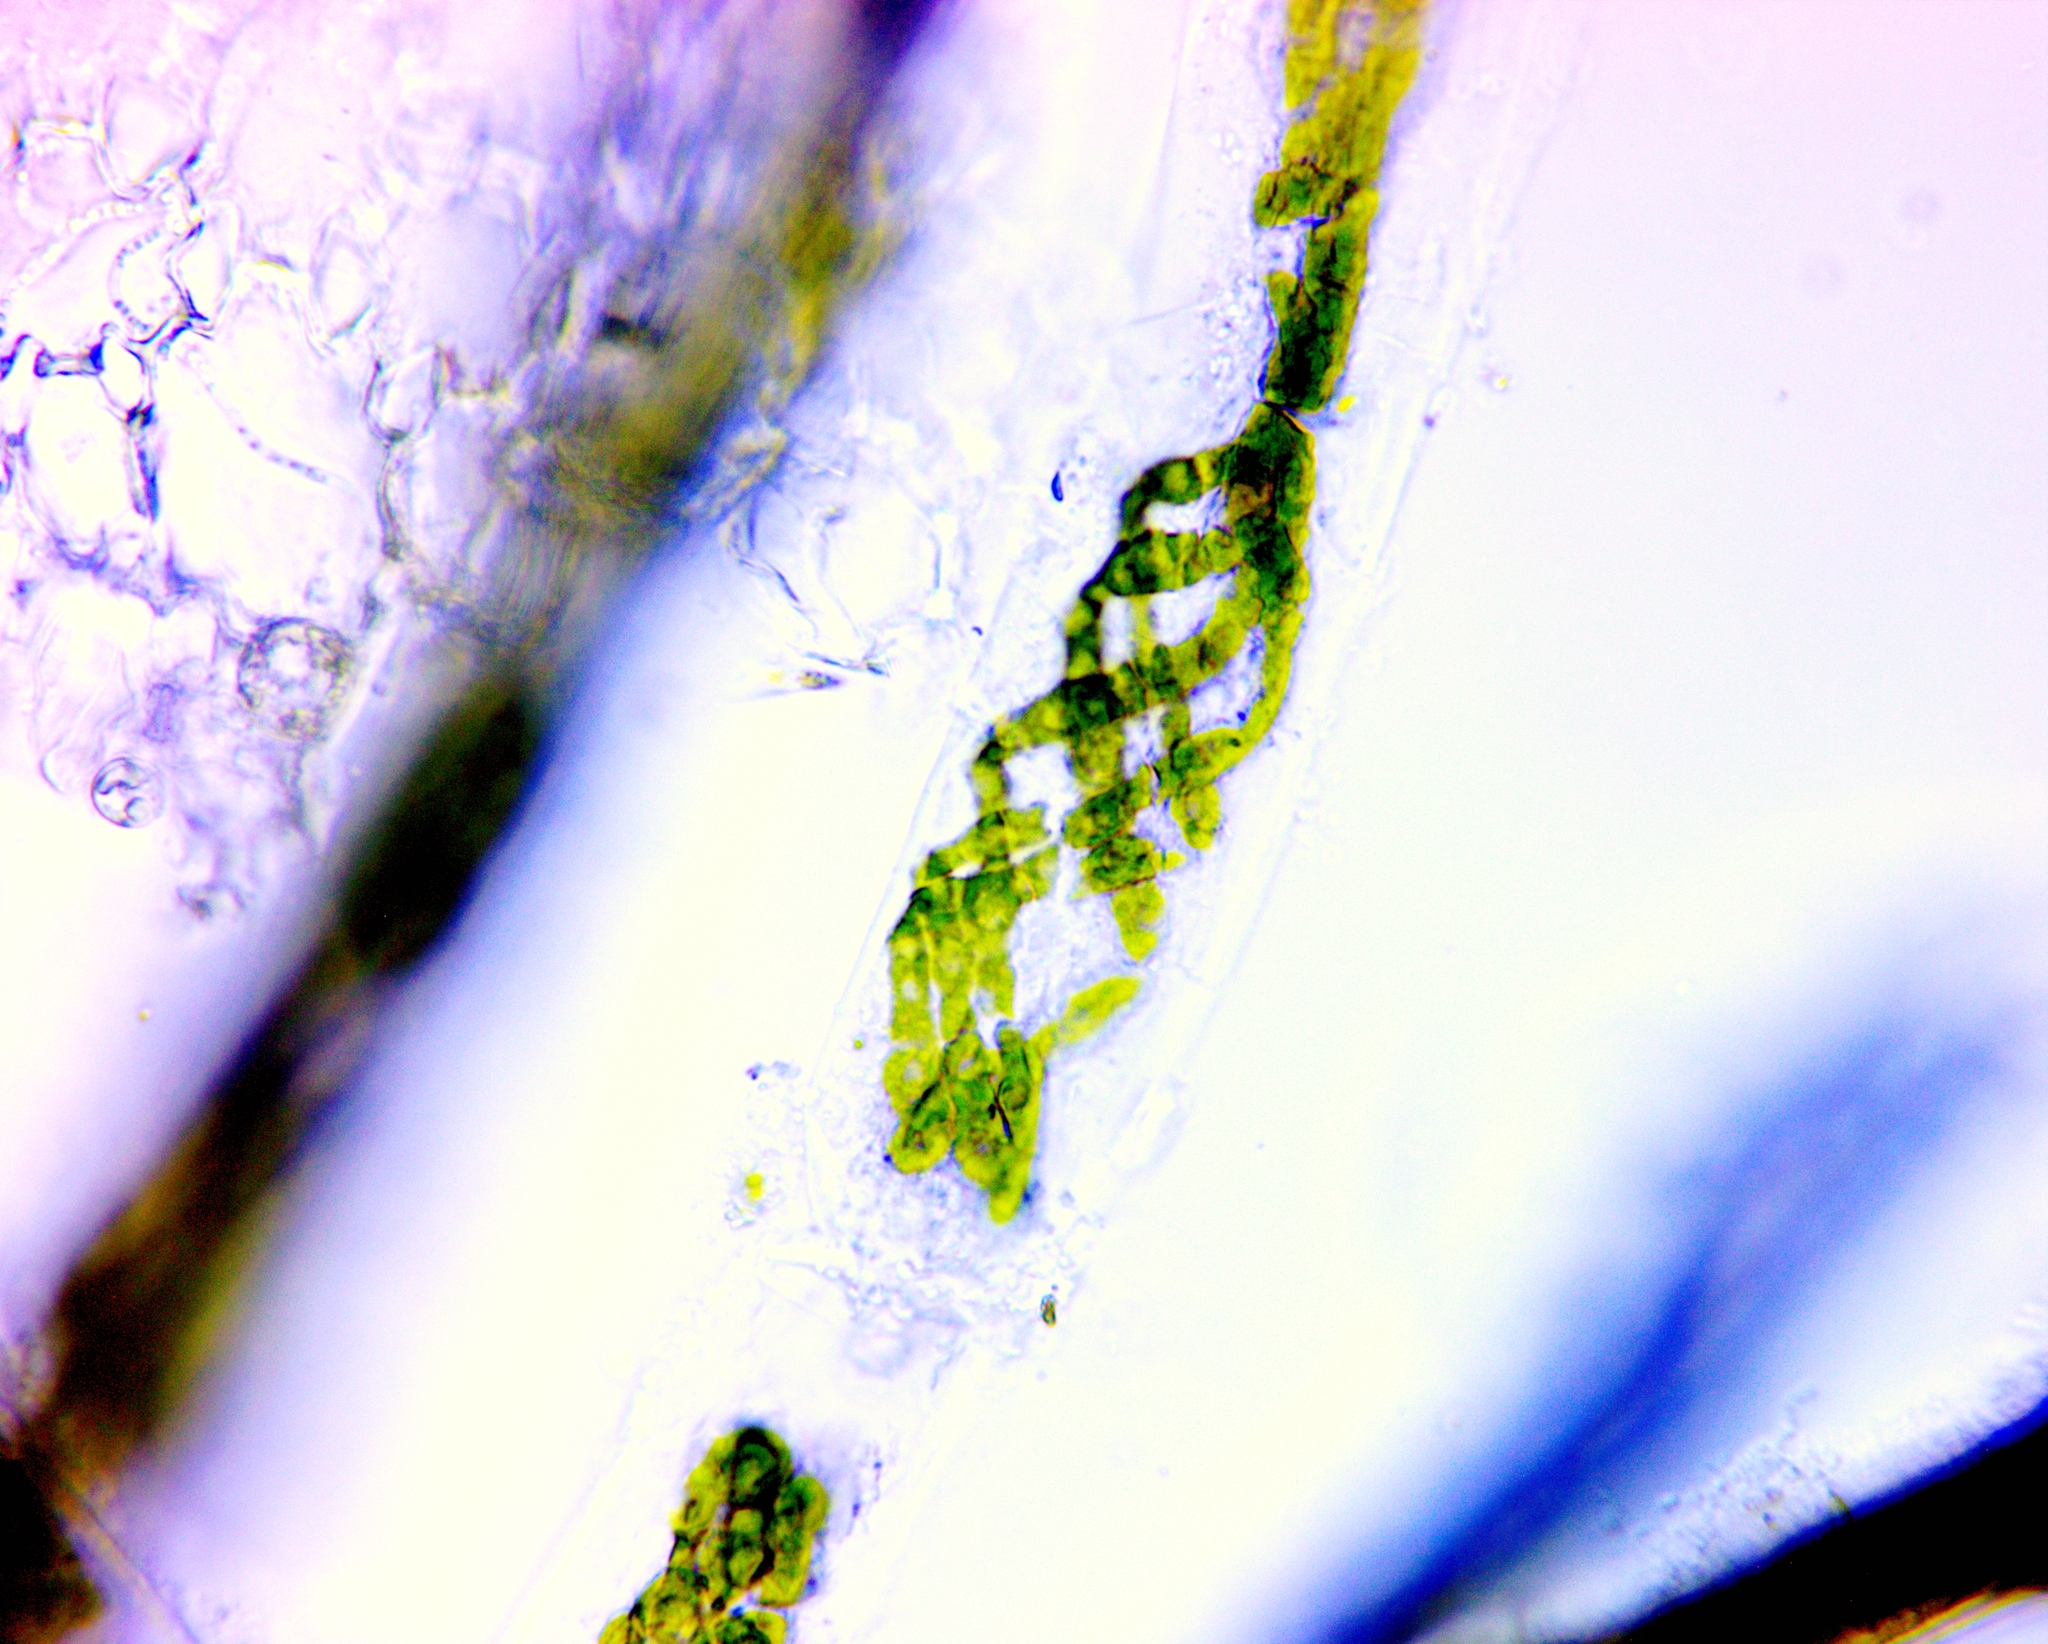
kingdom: Plantae
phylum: Charophyta
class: Zygnematophyceae
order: Zygnematales
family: Zygnemataceae
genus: Spirogyra
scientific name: Spirogyra
